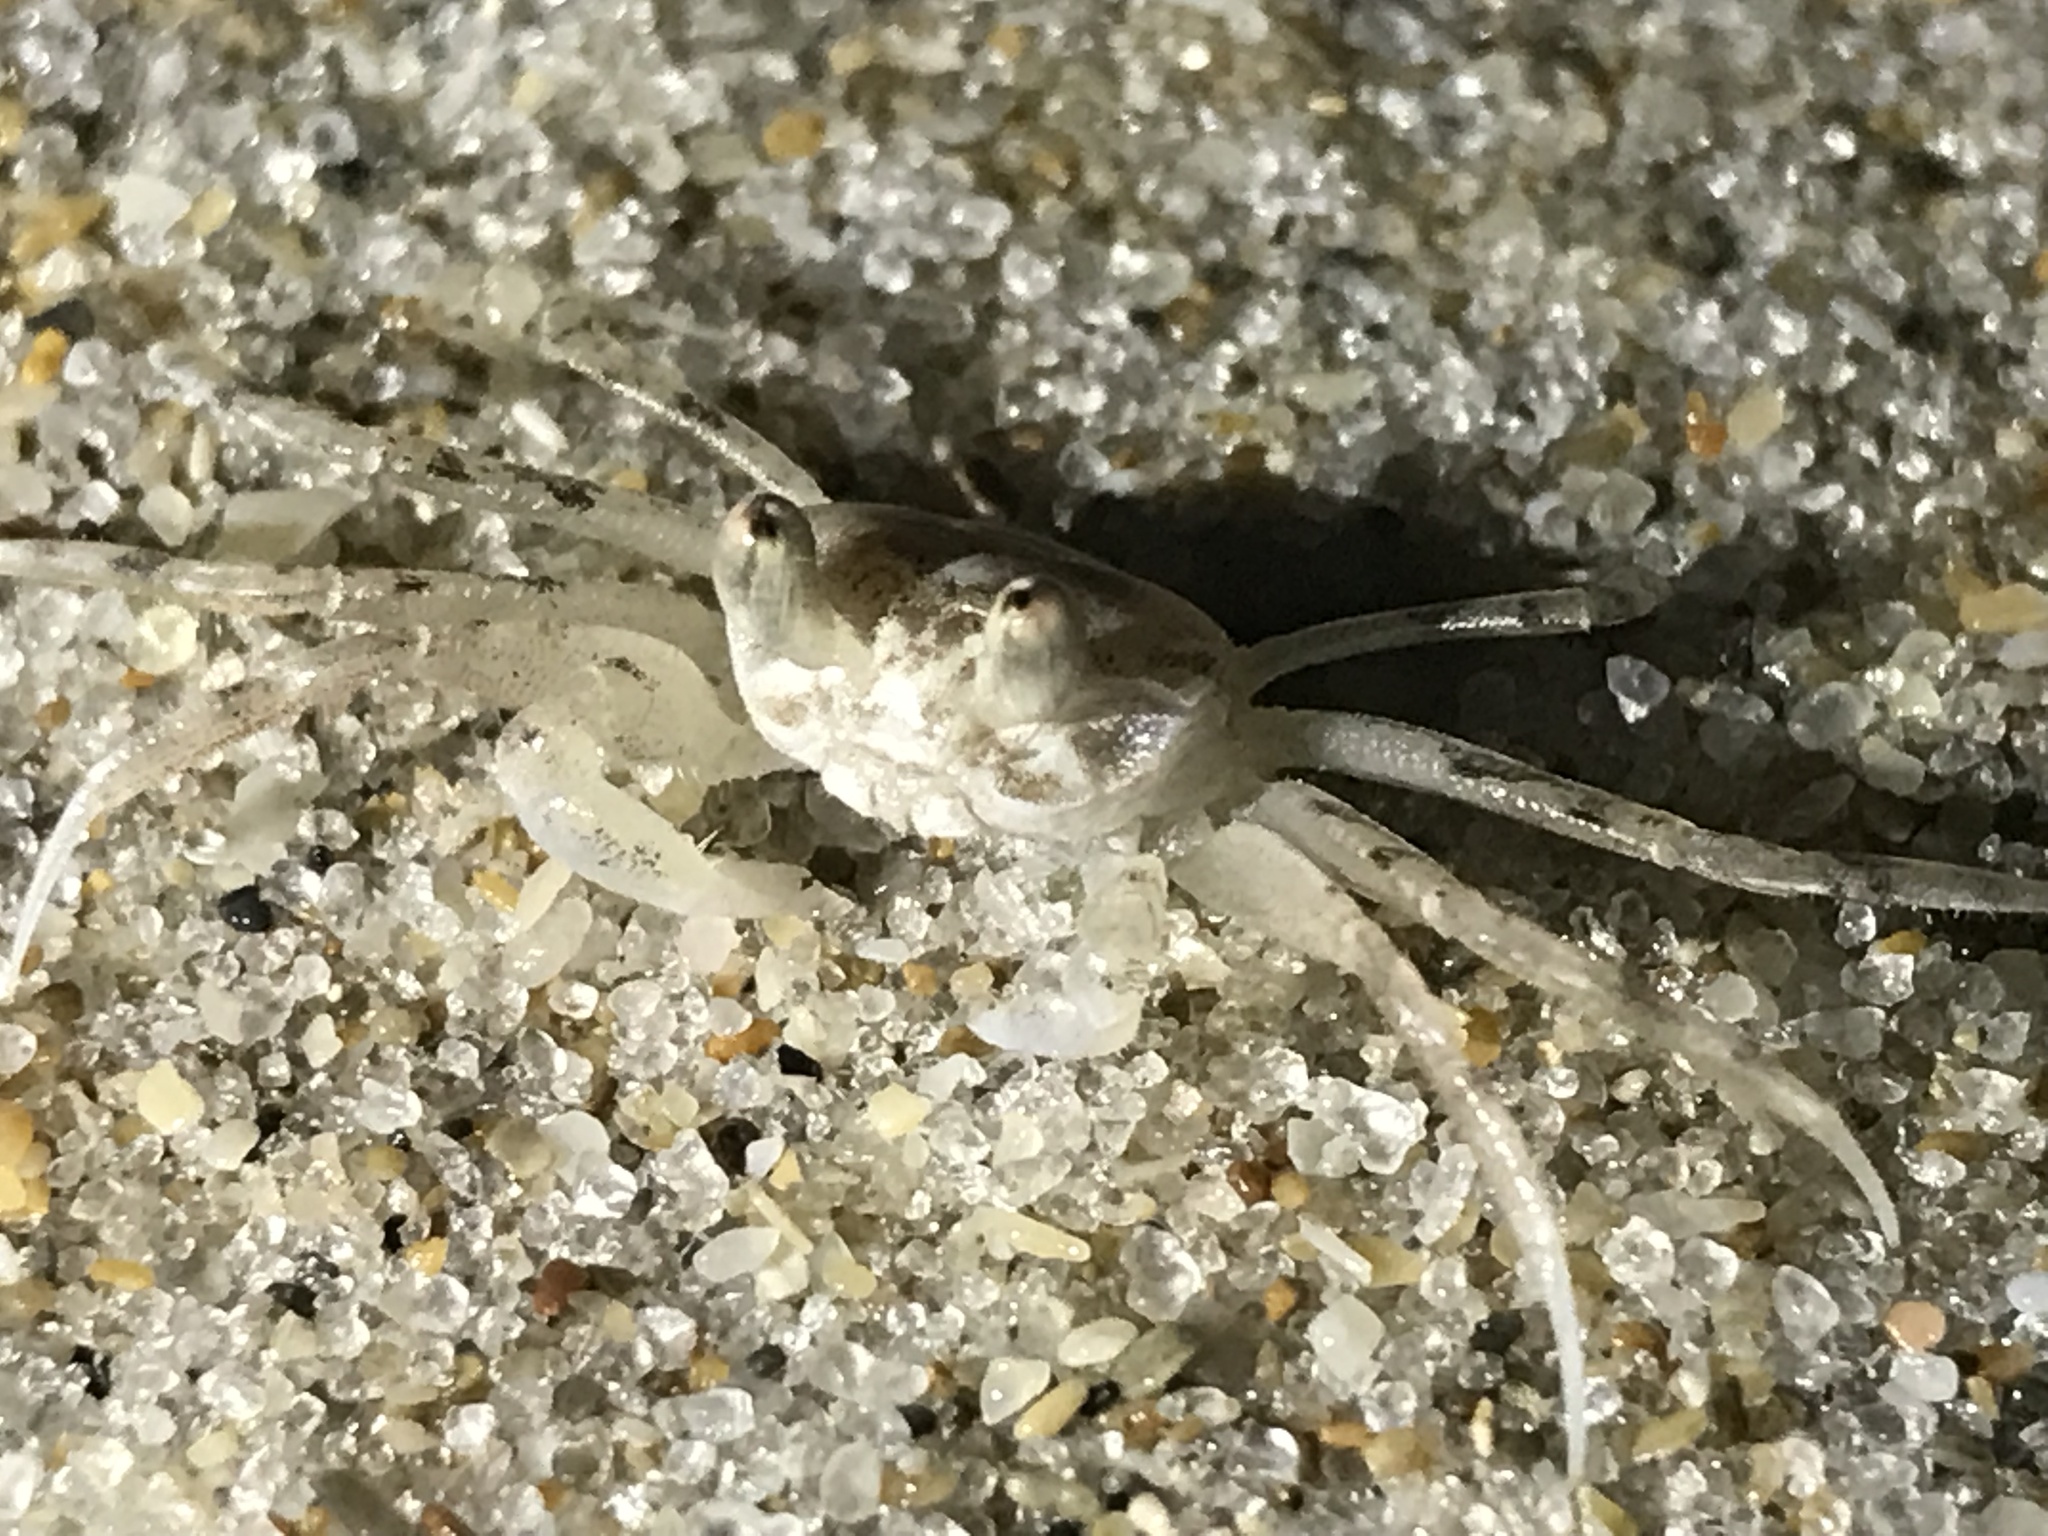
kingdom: Animalia
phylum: Arthropoda
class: Malacostraca
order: Decapoda
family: Ocypodidae
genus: Ocypode
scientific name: Ocypode quadrata
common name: Ghost crab
